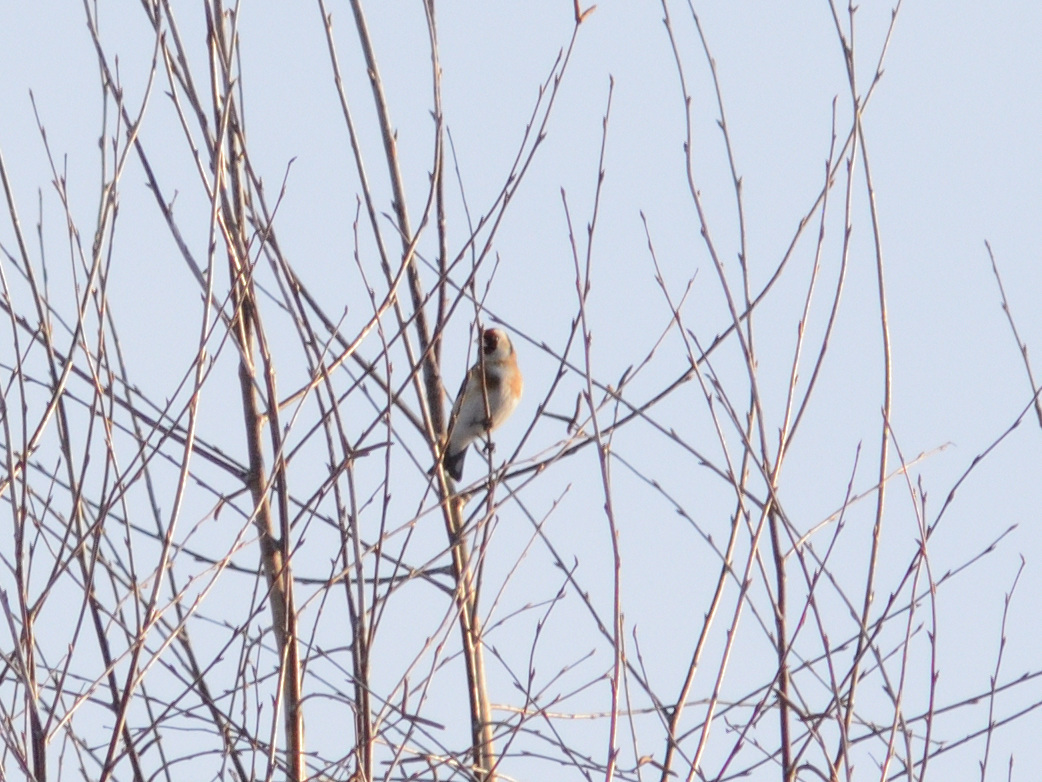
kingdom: Animalia
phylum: Chordata
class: Aves
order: Passeriformes
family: Fringillidae
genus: Carduelis
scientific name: Carduelis carduelis
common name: European goldfinch
